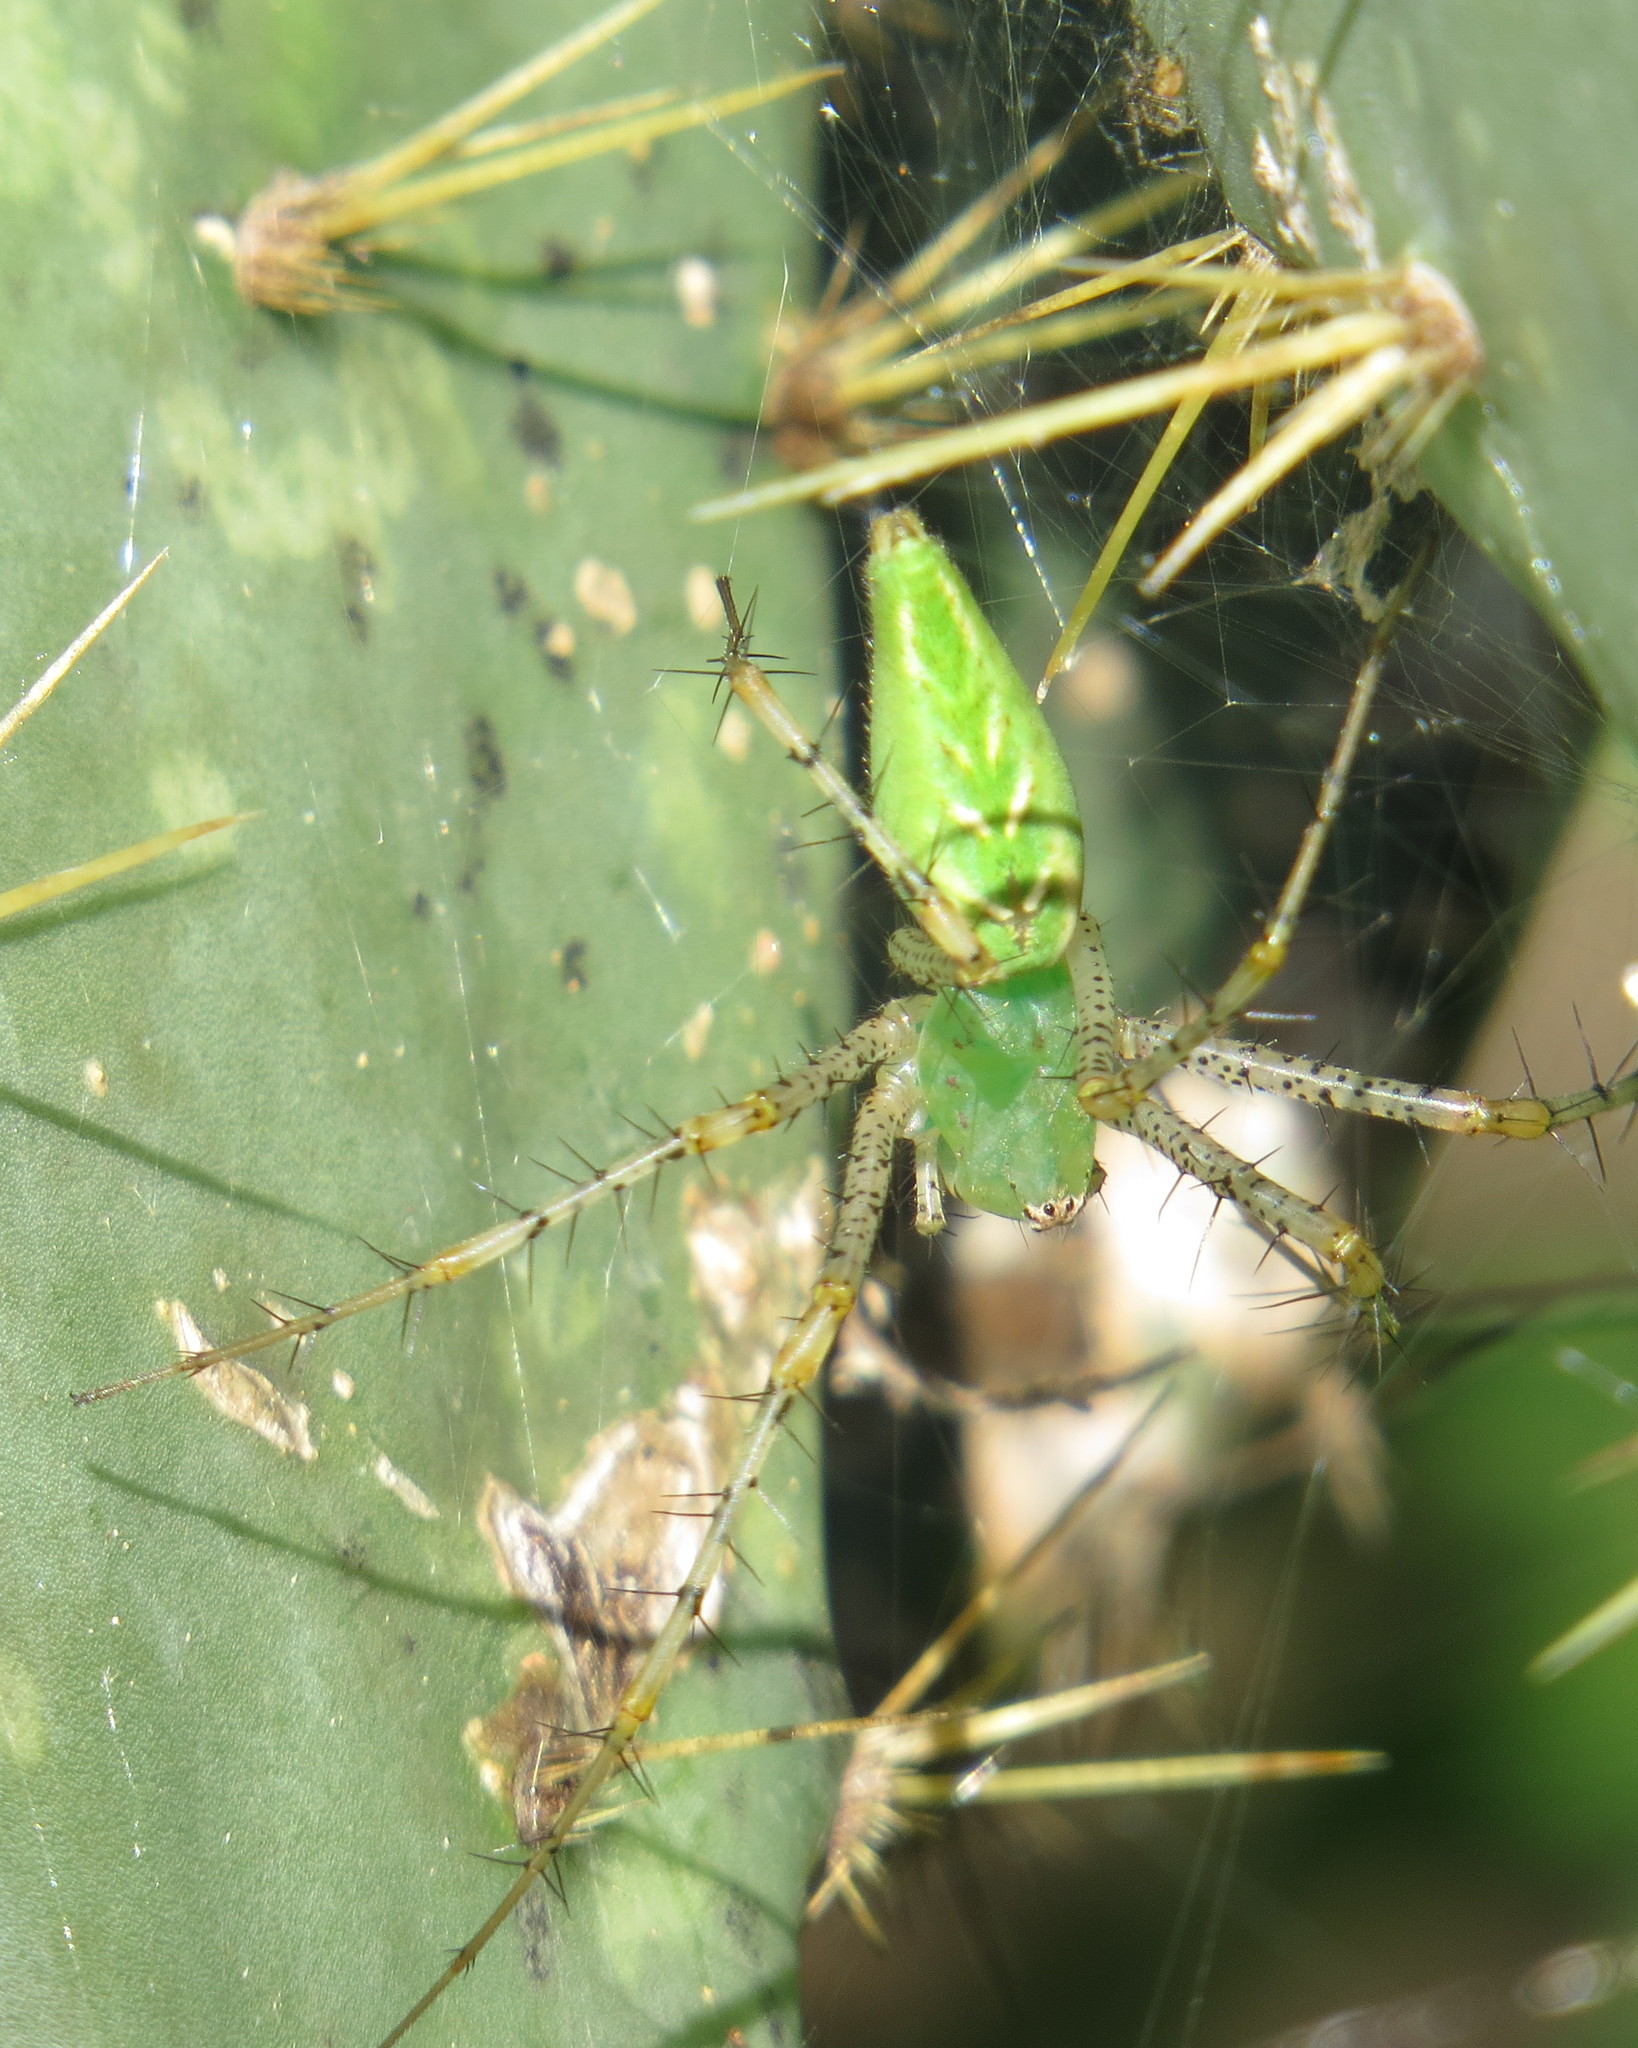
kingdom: Animalia
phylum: Arthropoda
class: Arachnida
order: Araneae
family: Oxyopidae
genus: Peucetia
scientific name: Peucetia viridans
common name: Lynx spiders
